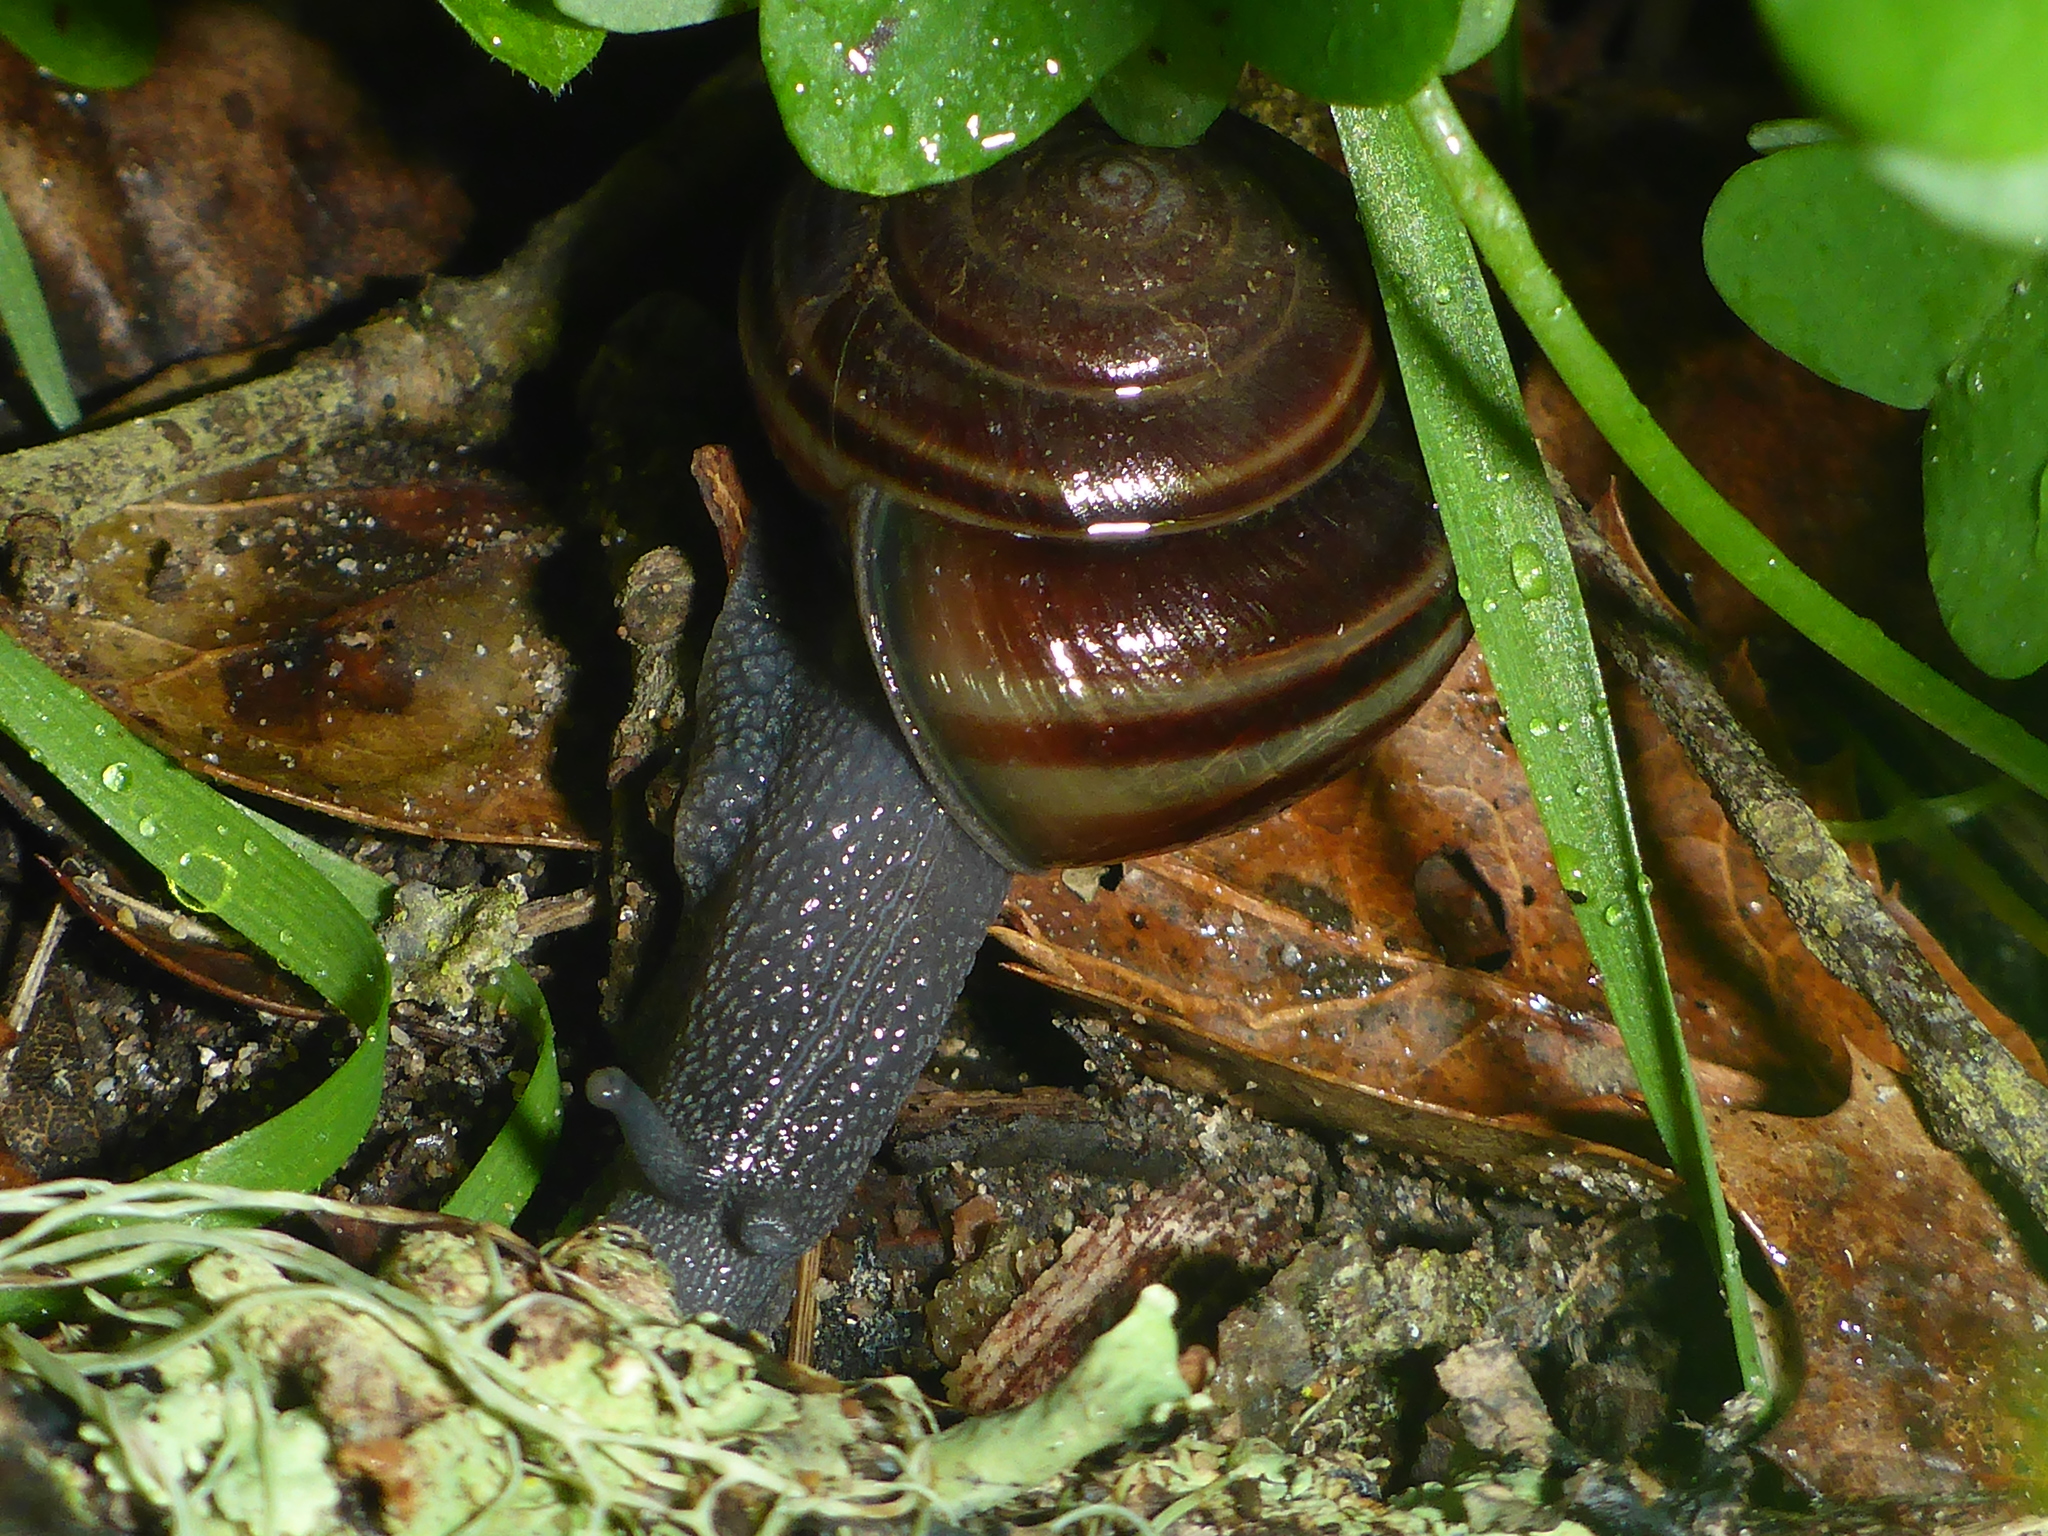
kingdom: Animalia
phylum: Mollusca
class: Gastropoda
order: Stylommatophora
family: Xanthonychidae
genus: Helminthoglypta
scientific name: Helminthoglypta sequoicola
